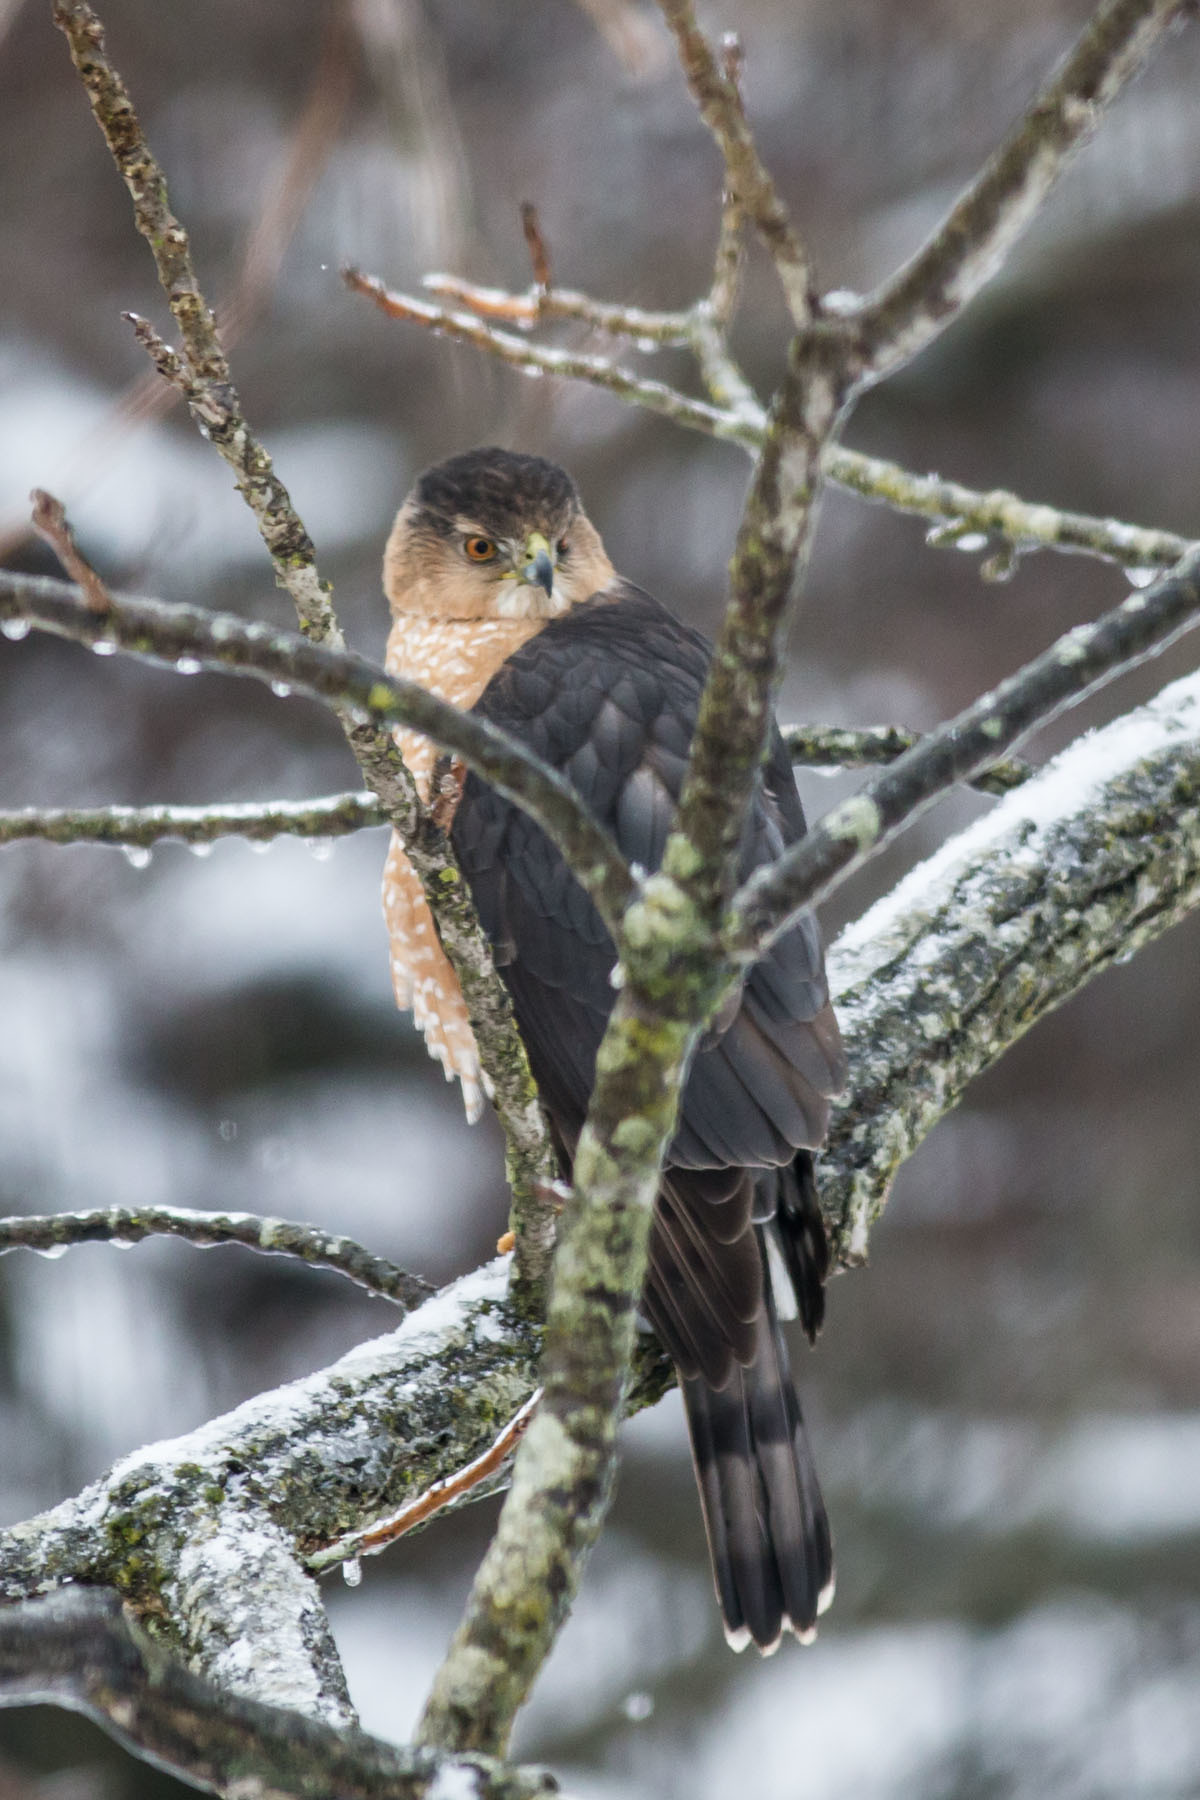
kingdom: Animalia
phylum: Chordata
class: Aves
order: Accipitriformes
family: Accipitridae
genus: Accipiter
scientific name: Accipiter cooperii
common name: Cooper's hawk
